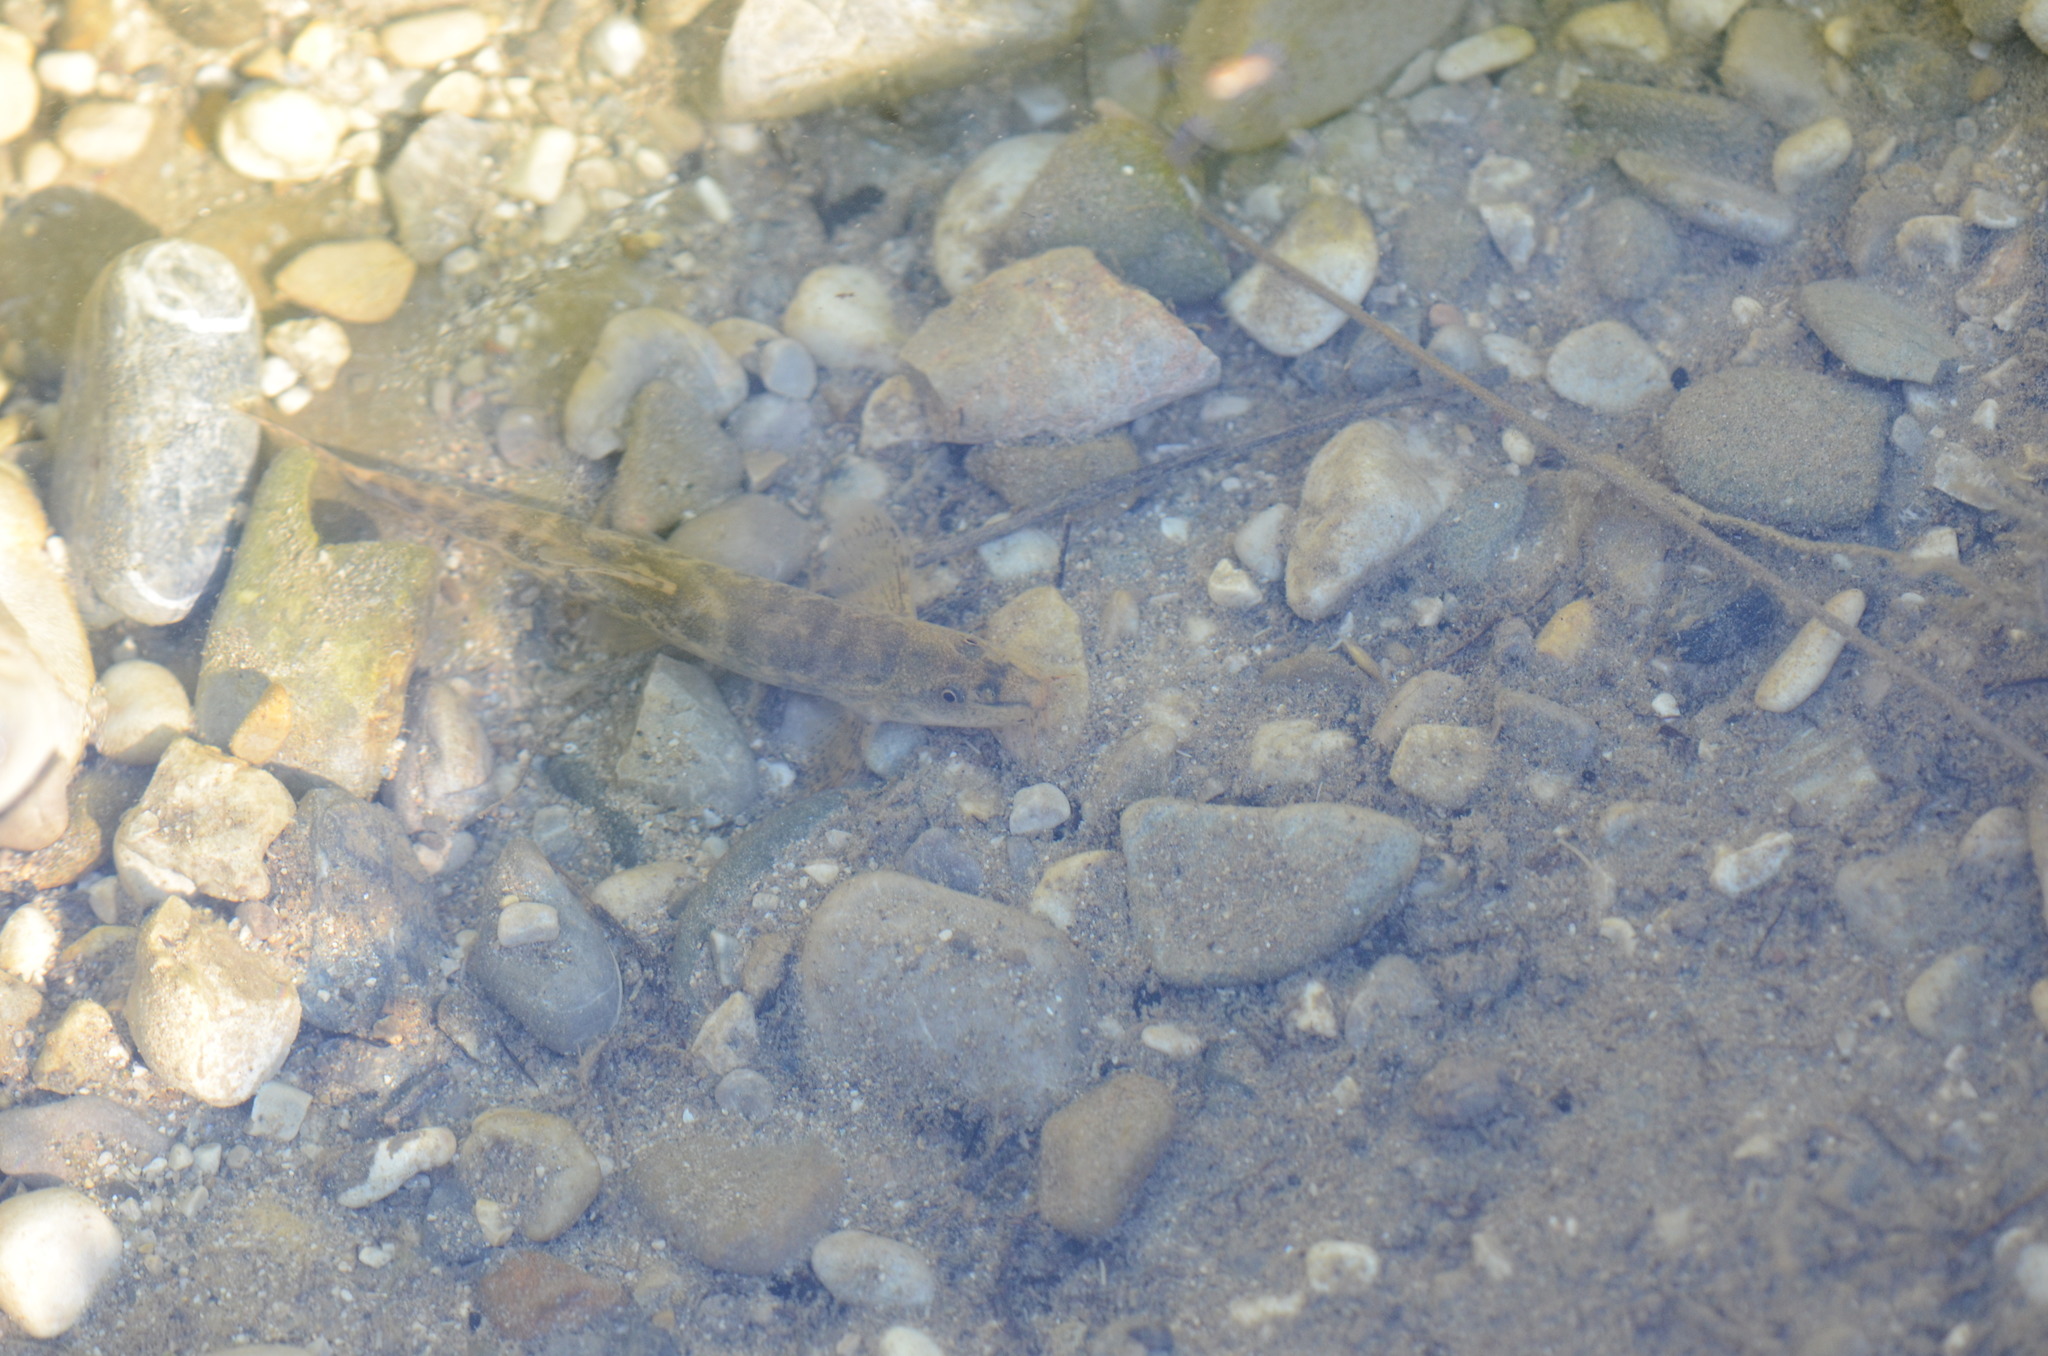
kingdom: Animalia
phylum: Chordata
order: Cypriniformes
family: Nemacheilidae
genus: Barbatula
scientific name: Barbatula barbatula
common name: Stone loach
